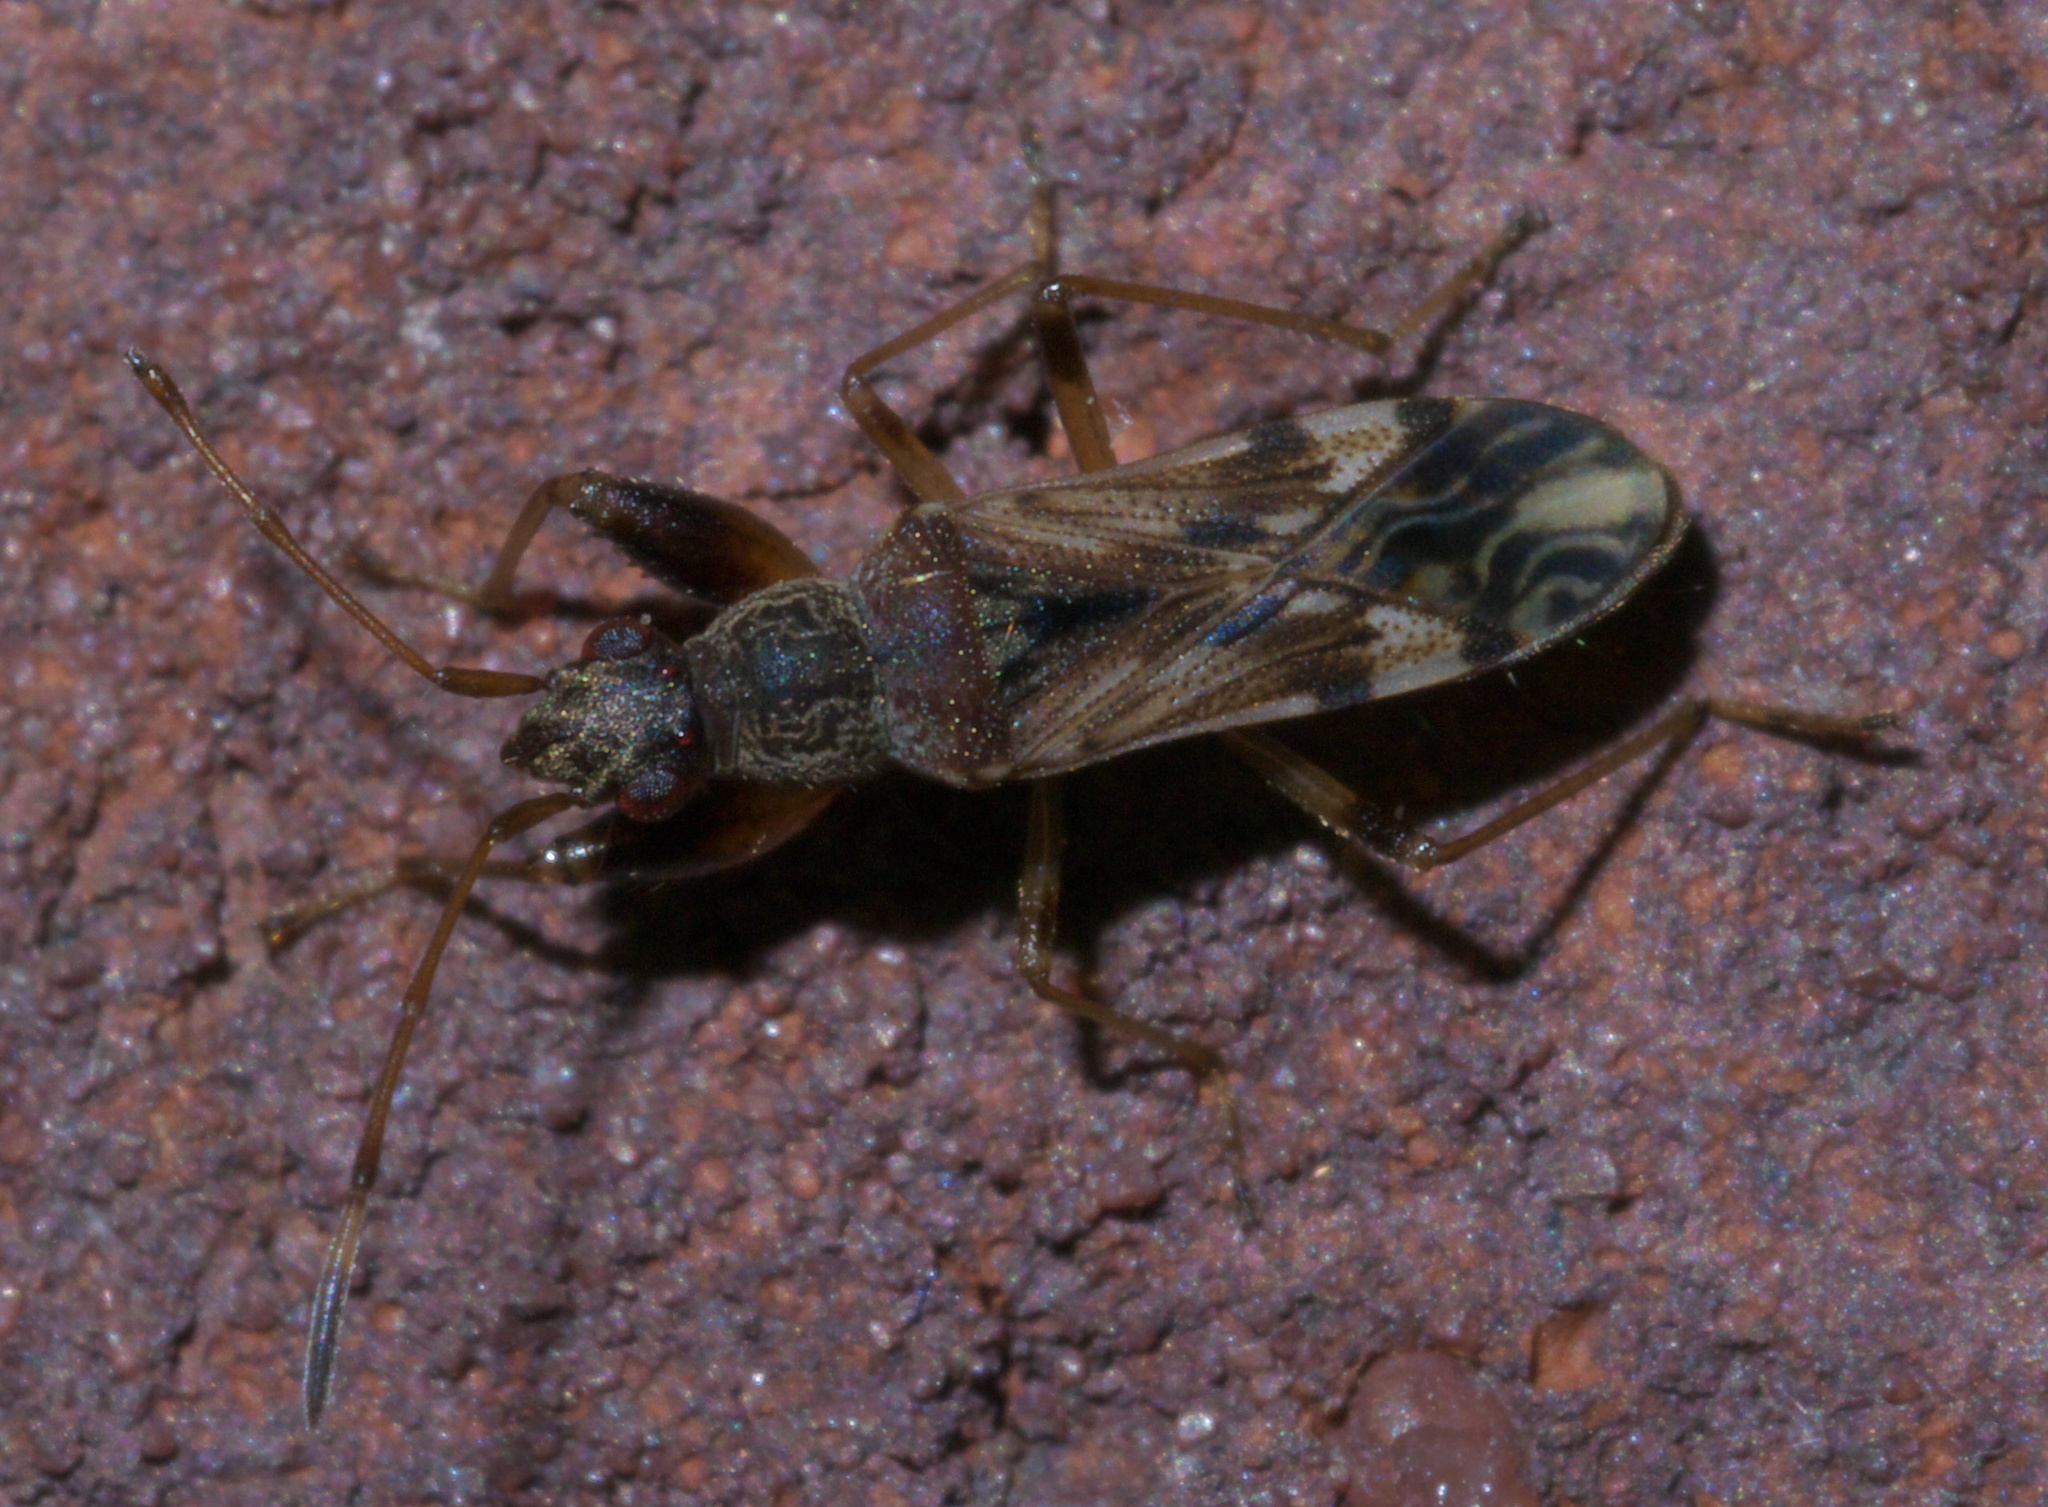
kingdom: Animalia
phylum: Arthropoda
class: Insecta
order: Hemiptera
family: Rhyparochromidae
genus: Neopamera
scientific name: Neopamera albocincta
